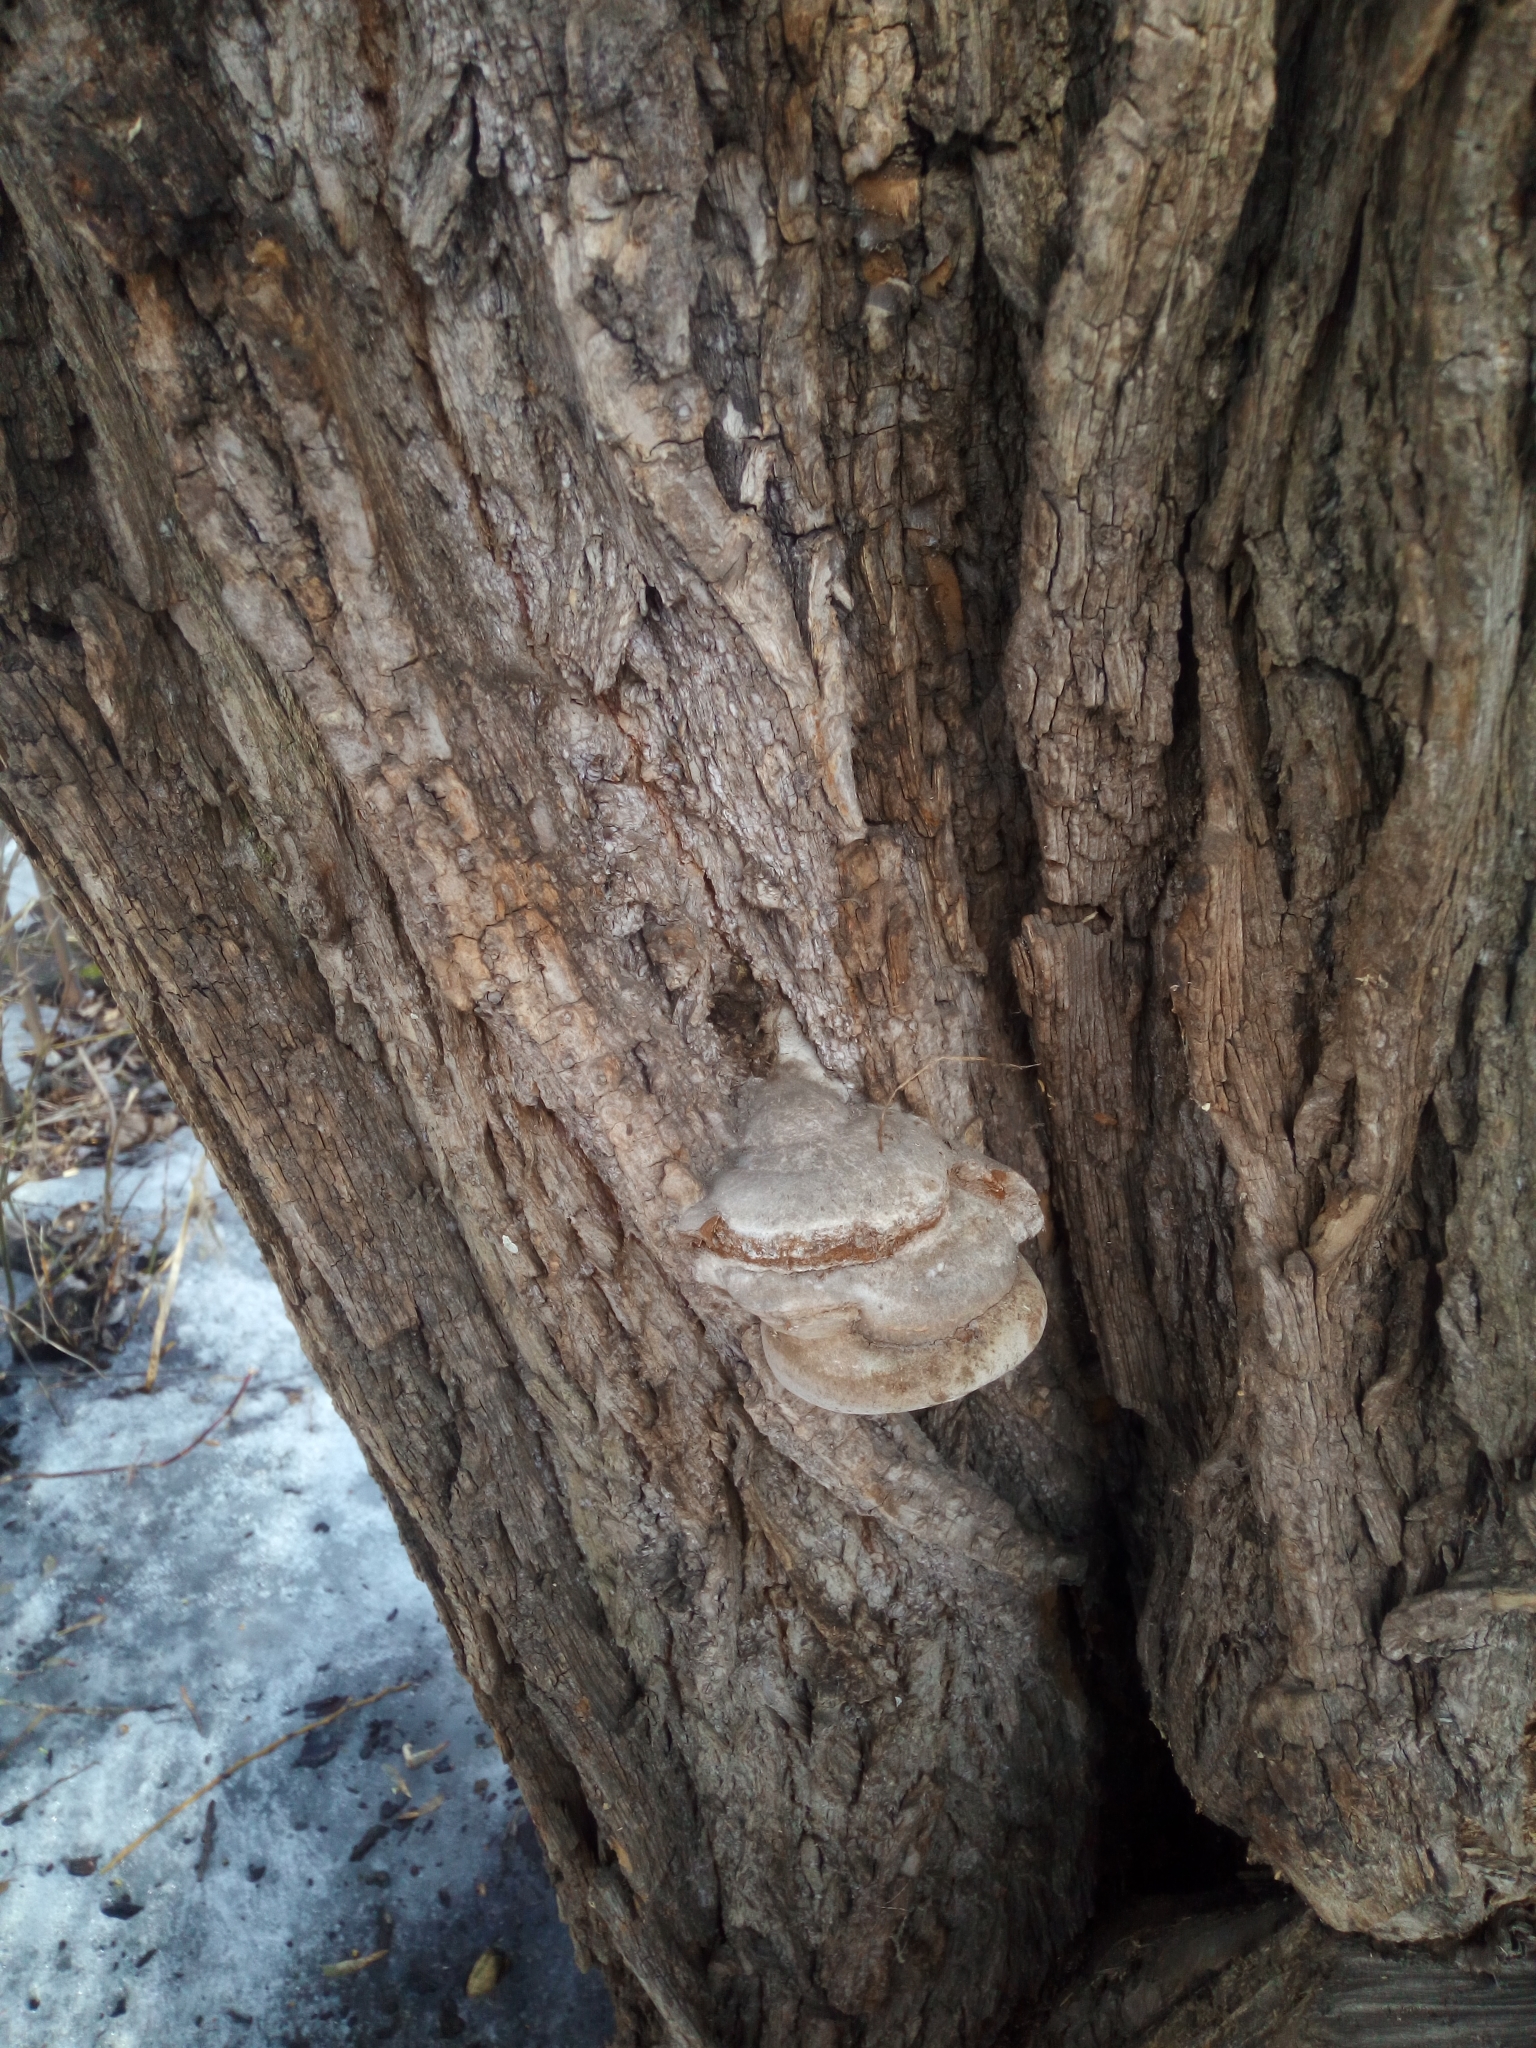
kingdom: Fungi
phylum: Basidiomycota
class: Agaricomycetes
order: Hymenochaetales
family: Hymenochaetaceae
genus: Phellinus
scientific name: Phellinus igniarius
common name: Willow bracket
